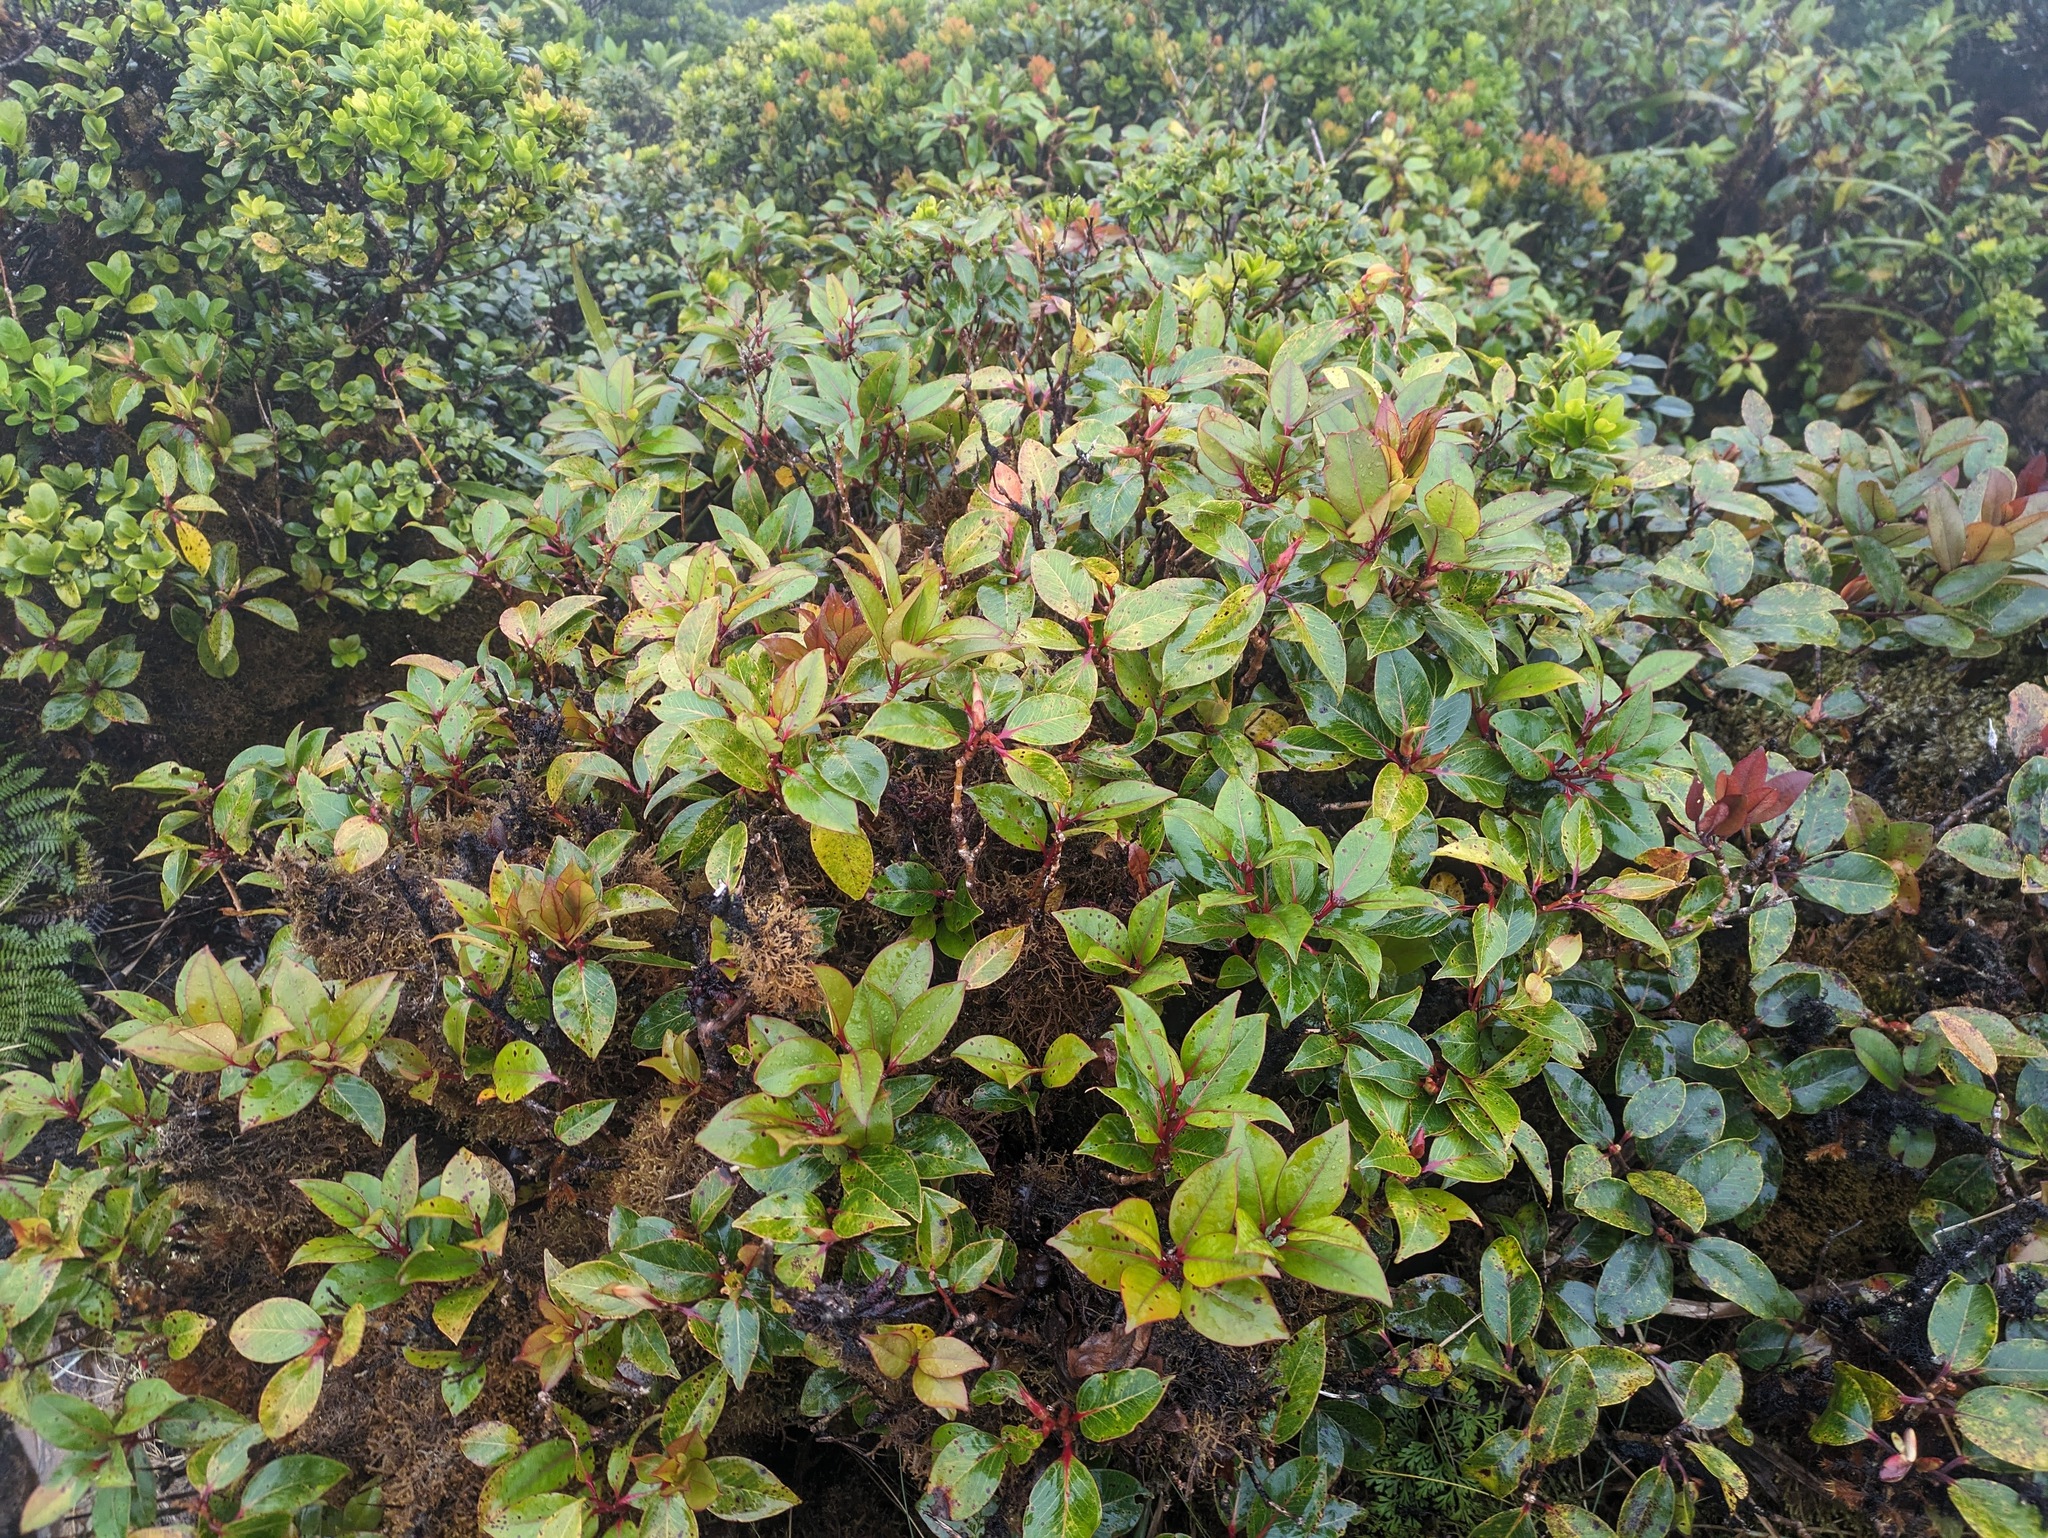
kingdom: Plantae
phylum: Tracheophyta
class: Magnoliopsida
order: Myrtales
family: Myrtaceae
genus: Metrosideros
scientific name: Metrosideros waialealae
